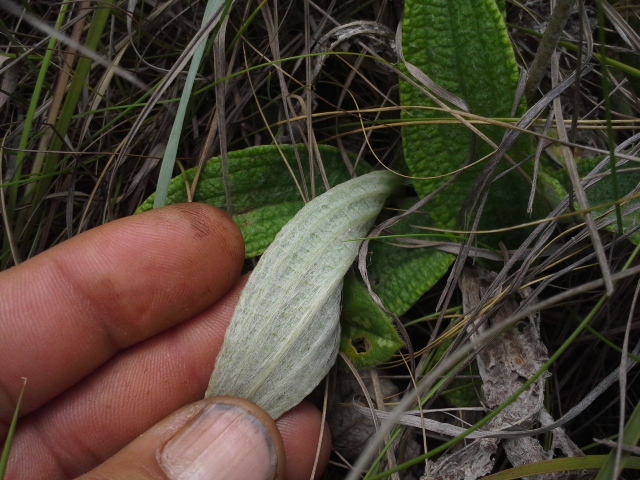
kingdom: Plantae
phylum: Tracheophyta
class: Magnoliopsida
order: Asterales
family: Asteraceae
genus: Helichrysum
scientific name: Helichrysum nudifolium
